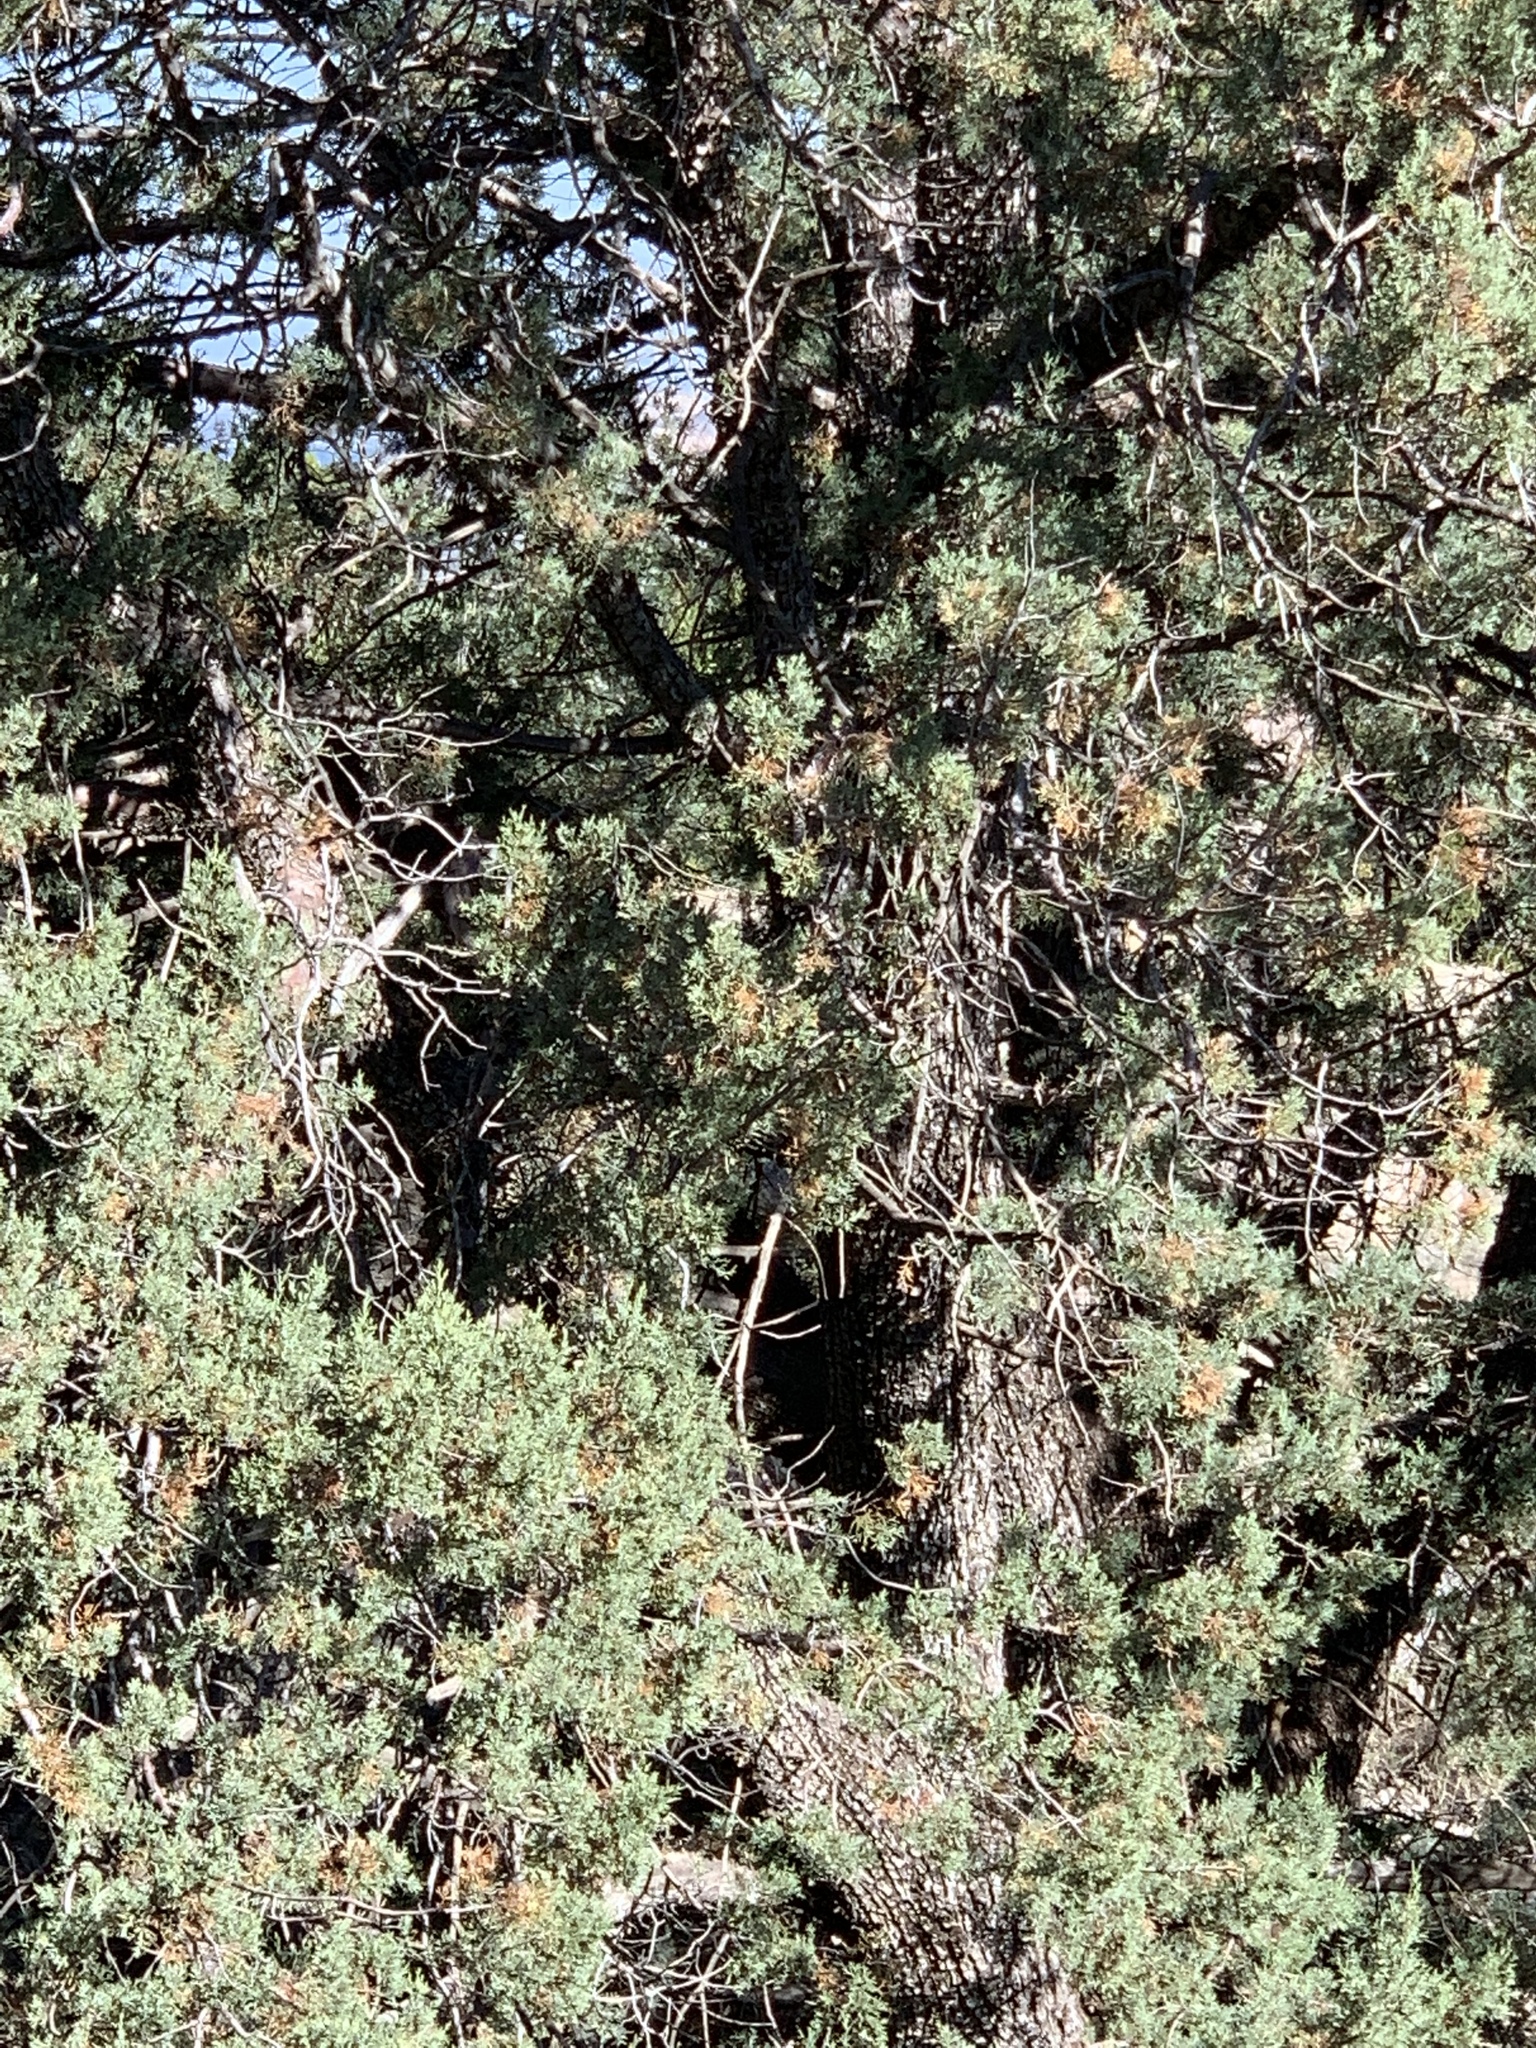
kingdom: Plantae
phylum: Tracheophyta
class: Pinopsida
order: Pinales
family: Cupressaceae
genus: Juniperus
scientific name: Juniperus deppeana
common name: Alligator juniper
